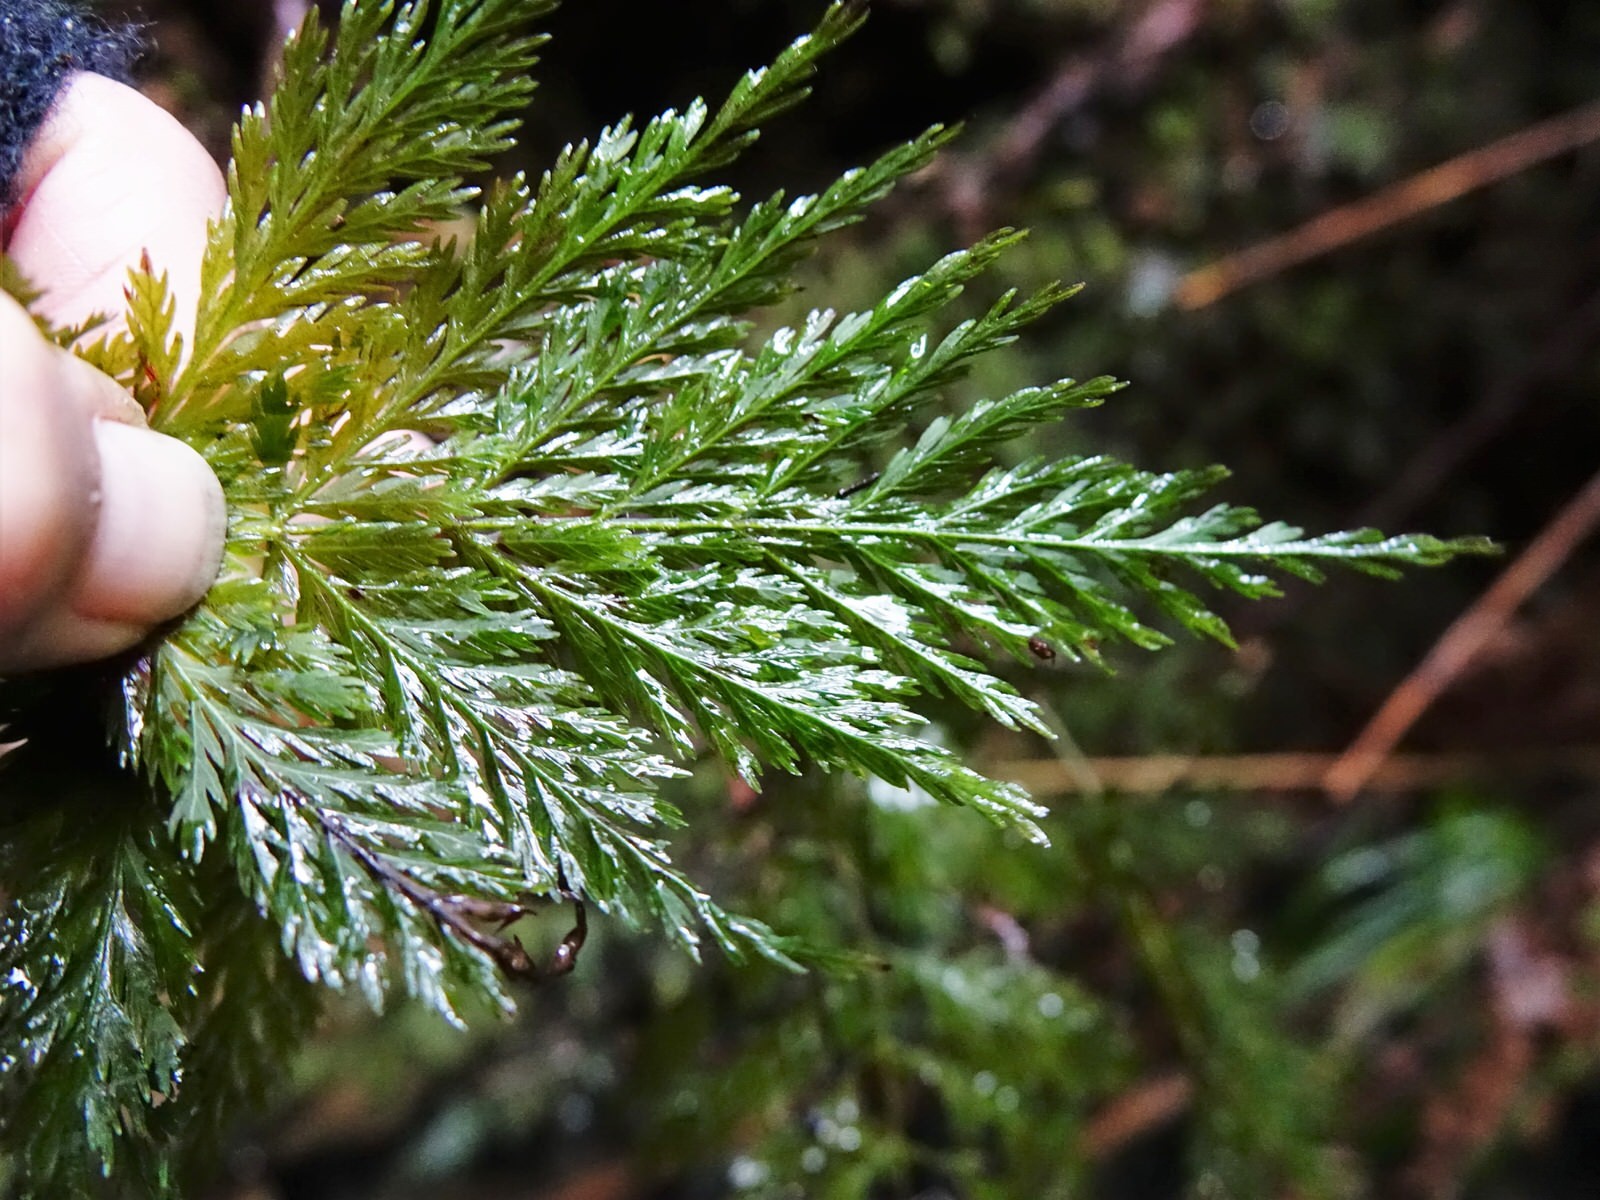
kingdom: Plantae
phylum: Tracheophyta
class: Polypodiopsida
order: Osmundales
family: Osmundaceae
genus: Leptopteris
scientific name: Leptopteris hymenophylloides
